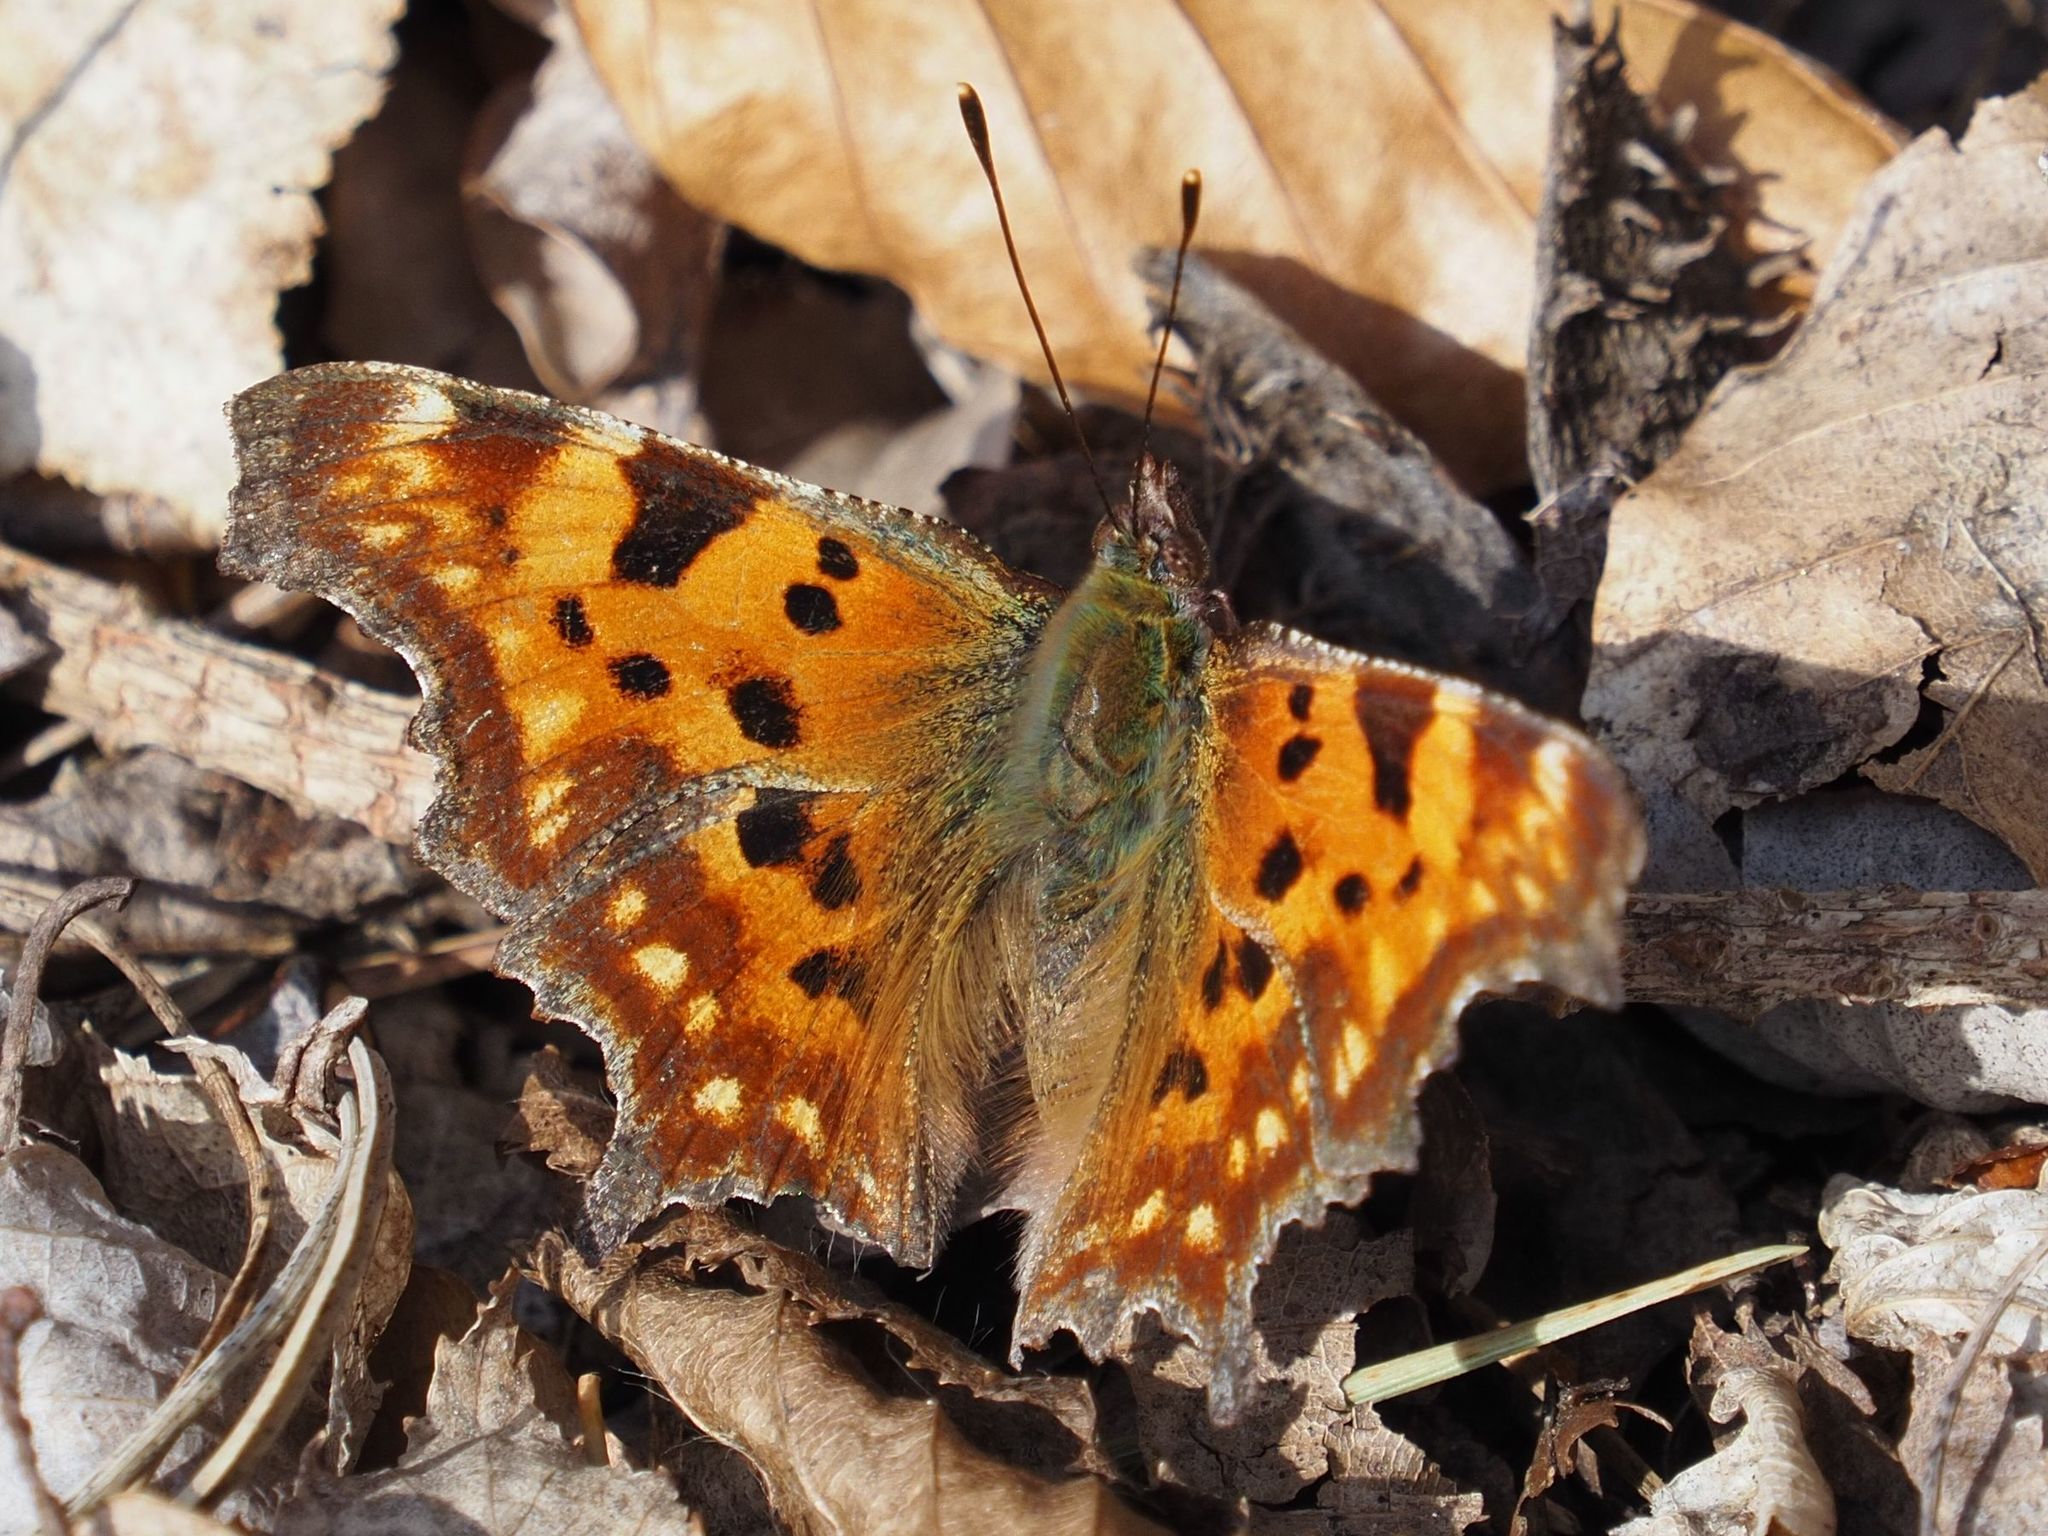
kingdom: Animalia
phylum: Arthropoda
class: Insecta
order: Lepidoptera
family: Nymphalidae
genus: Polygonia
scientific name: Polygonia c-album
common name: Comma
